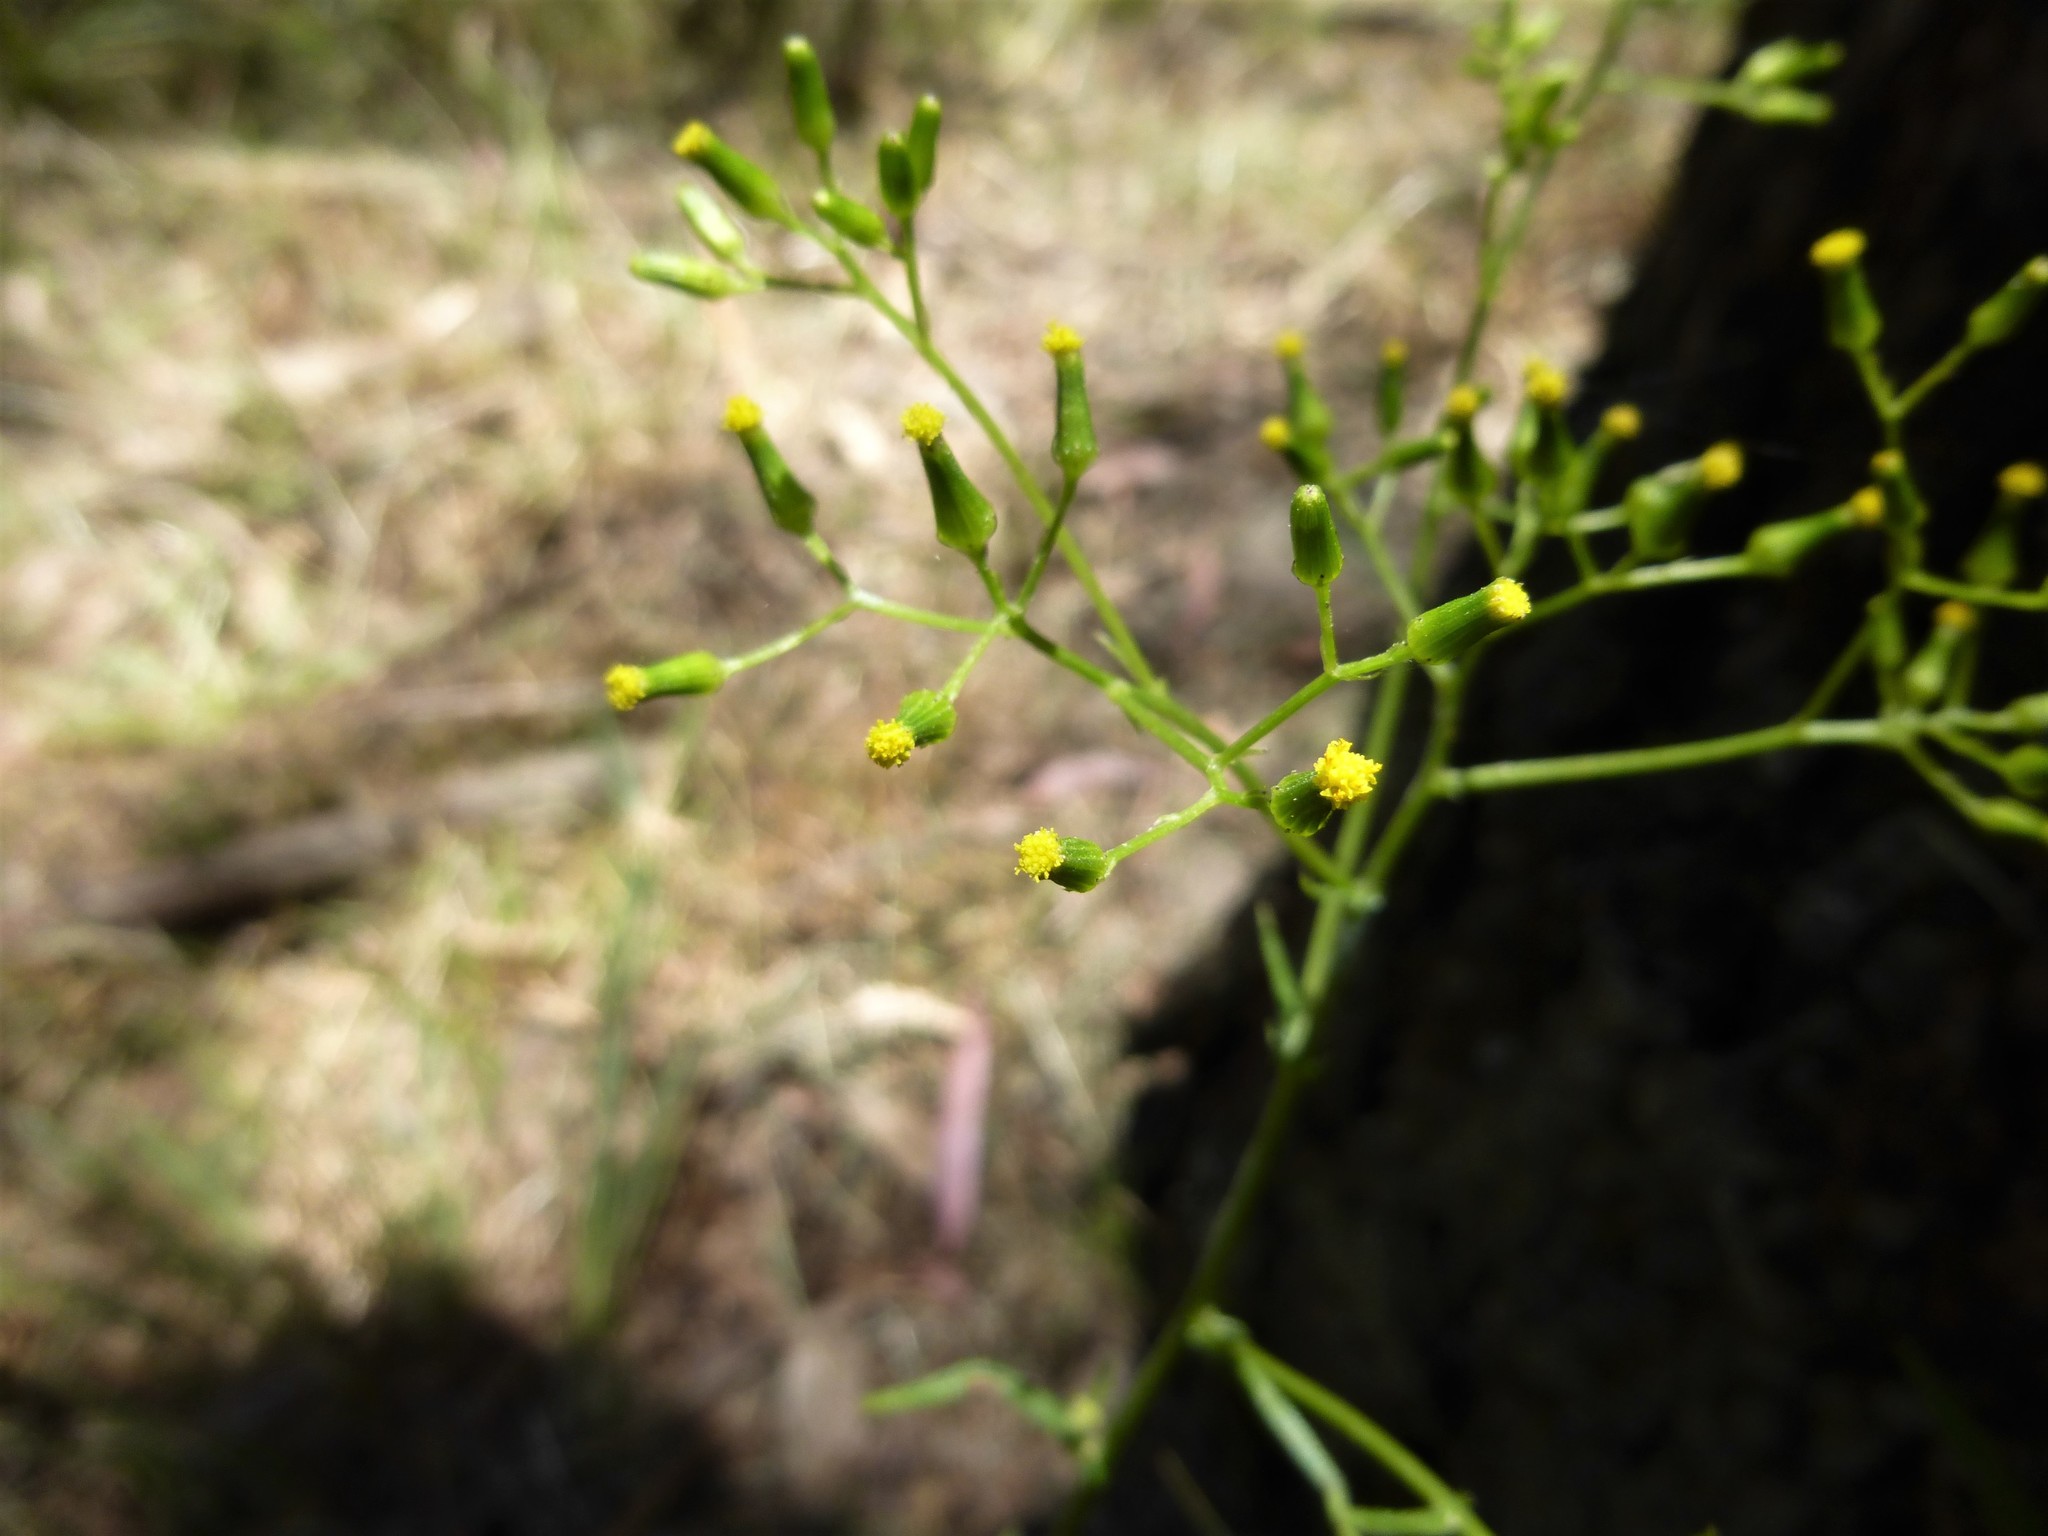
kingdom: Plantae
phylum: Tracheophyta
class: Magnoliopsida
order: Asterales
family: Asteraceae
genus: Senecio
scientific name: Senecio hispidulus
